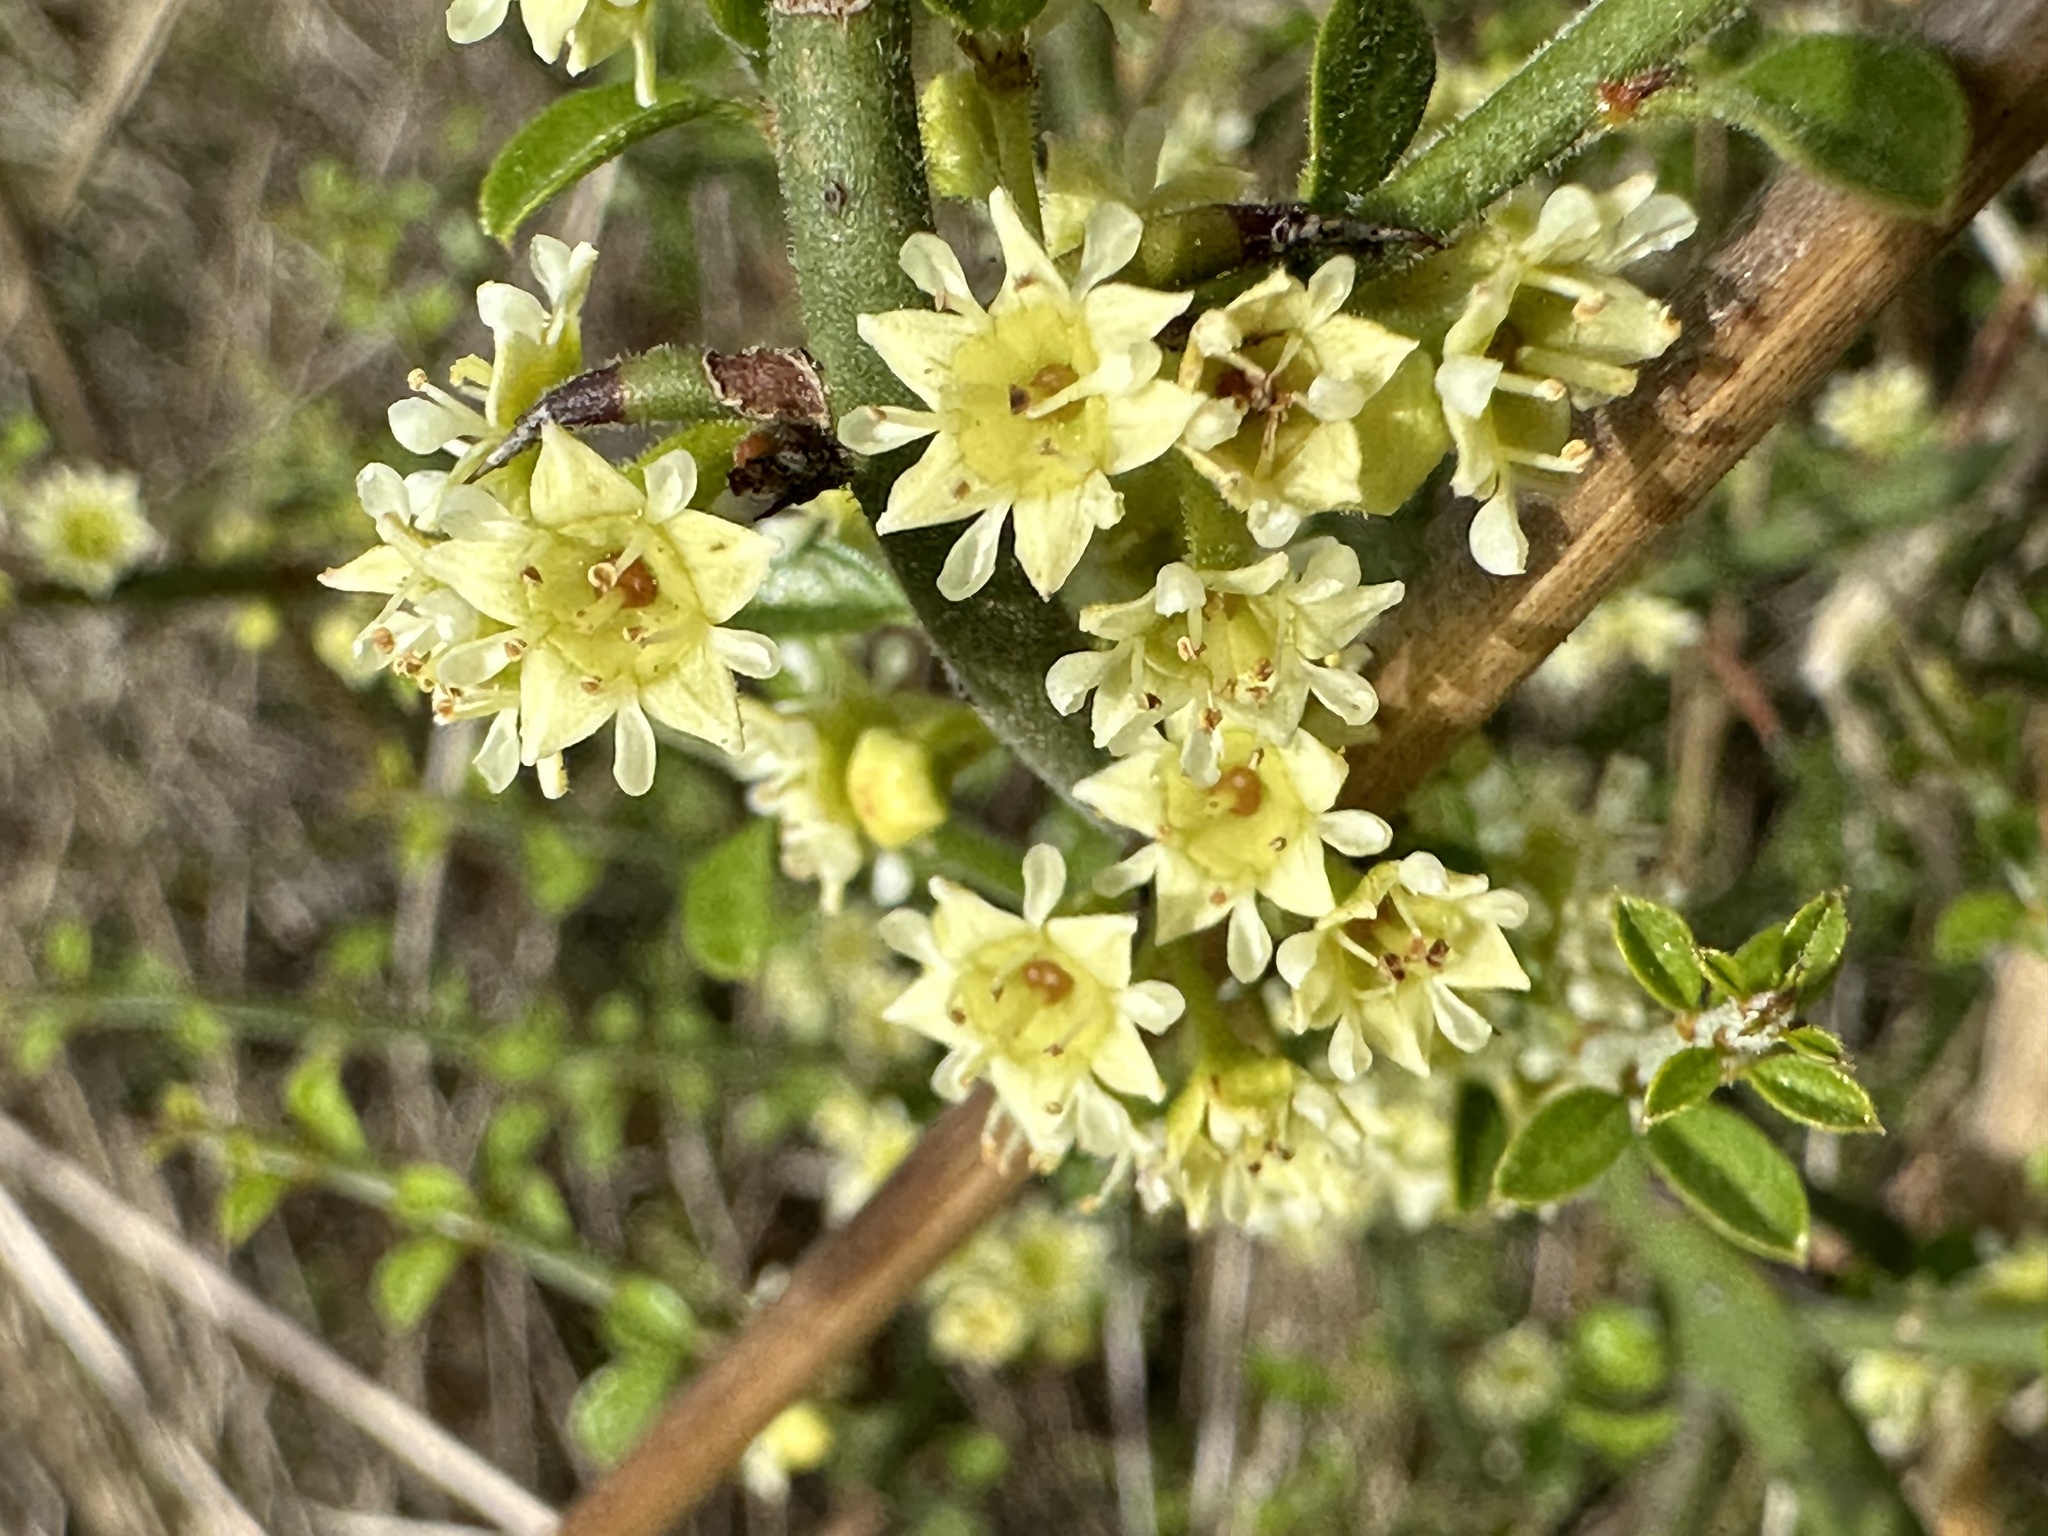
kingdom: Plantae
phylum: Tracheophyta
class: Magnoliopsida
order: Rosales
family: Rhamnaceae
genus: Adolphia
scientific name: Adolphia californica
